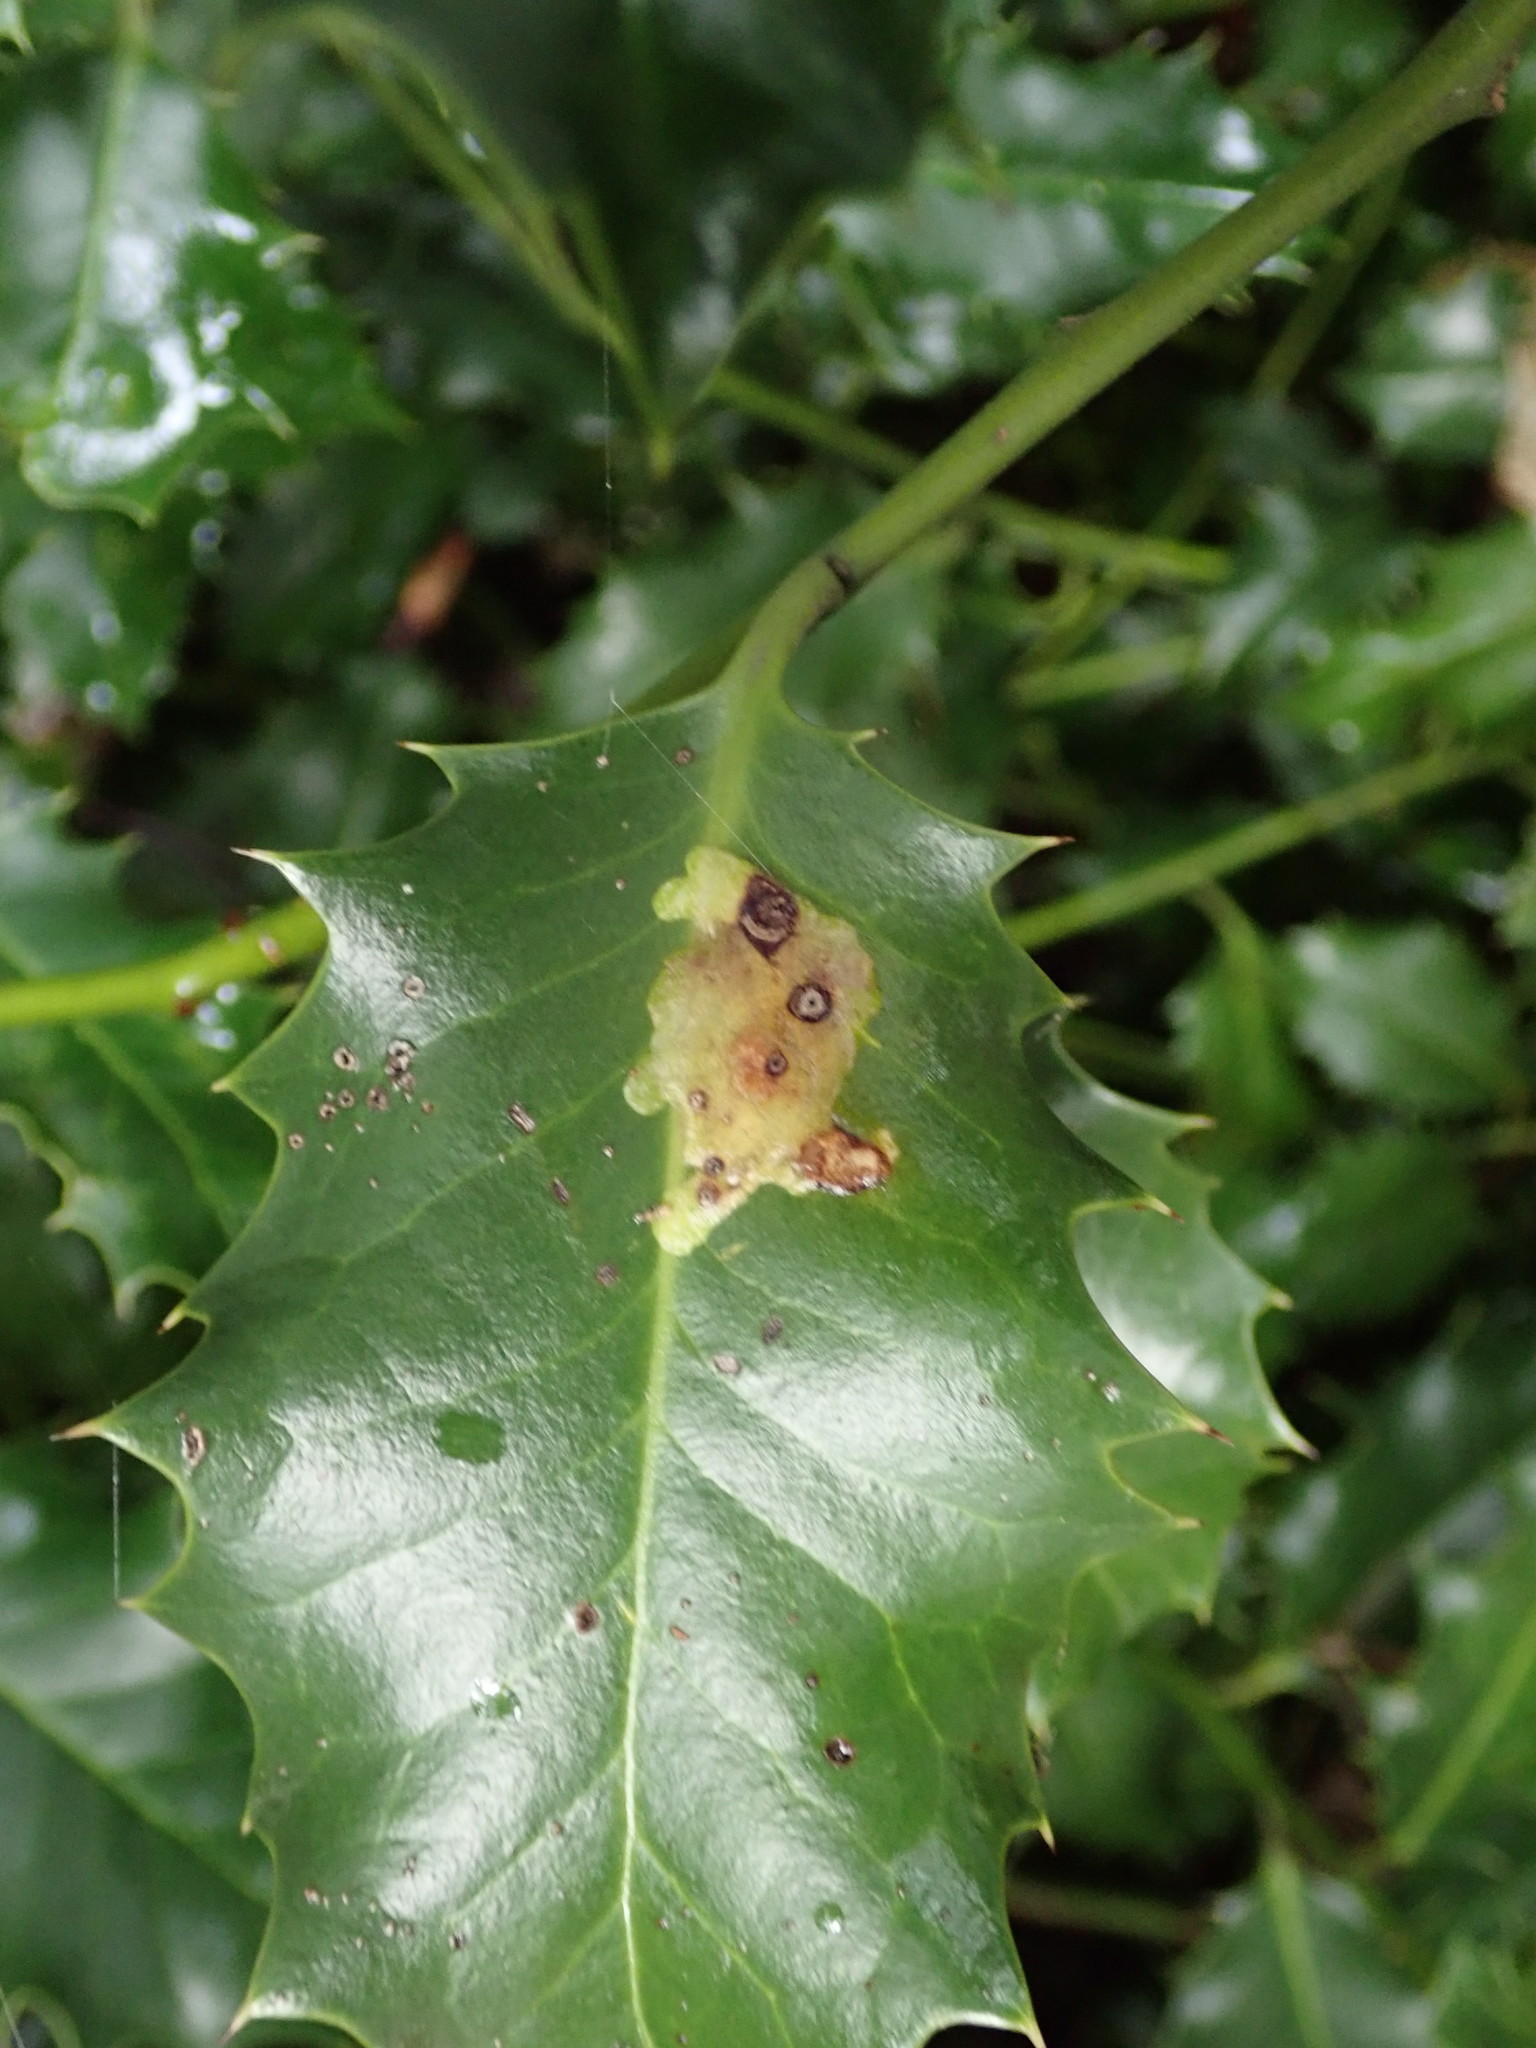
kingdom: Animalia
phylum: Arthropoda
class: Insecta
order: Diptera
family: Agromyzidae
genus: Phytomyza
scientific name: Phytomyza ilicis
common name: Holly leafminer
